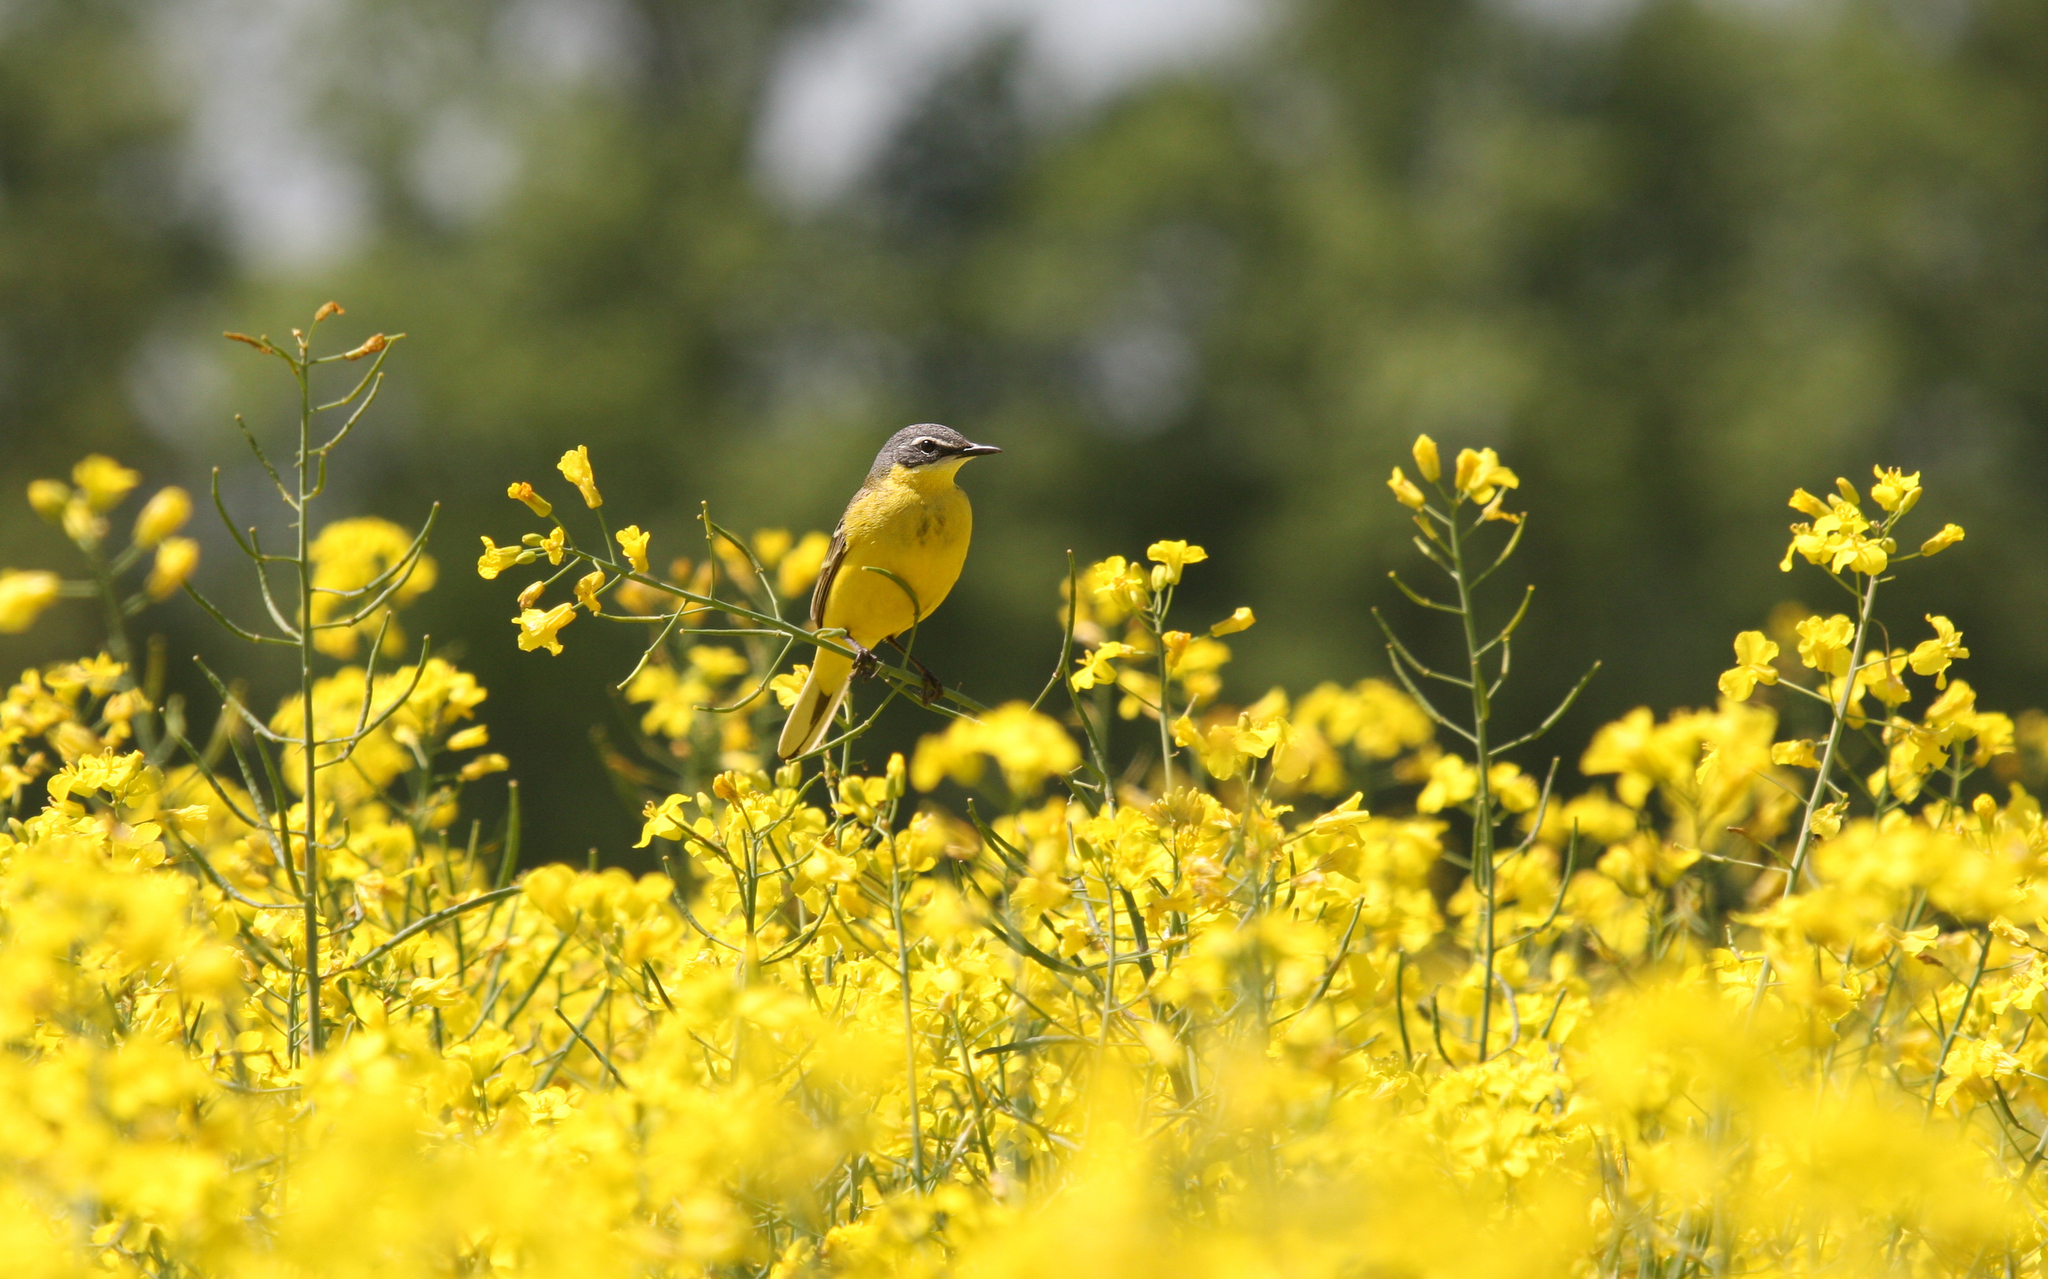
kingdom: Animalia
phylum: Chordata
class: Aves
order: Passeriformes
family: Motacillidae
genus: Motacilla
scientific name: Motacilla flava
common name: Western yellow wagtail
